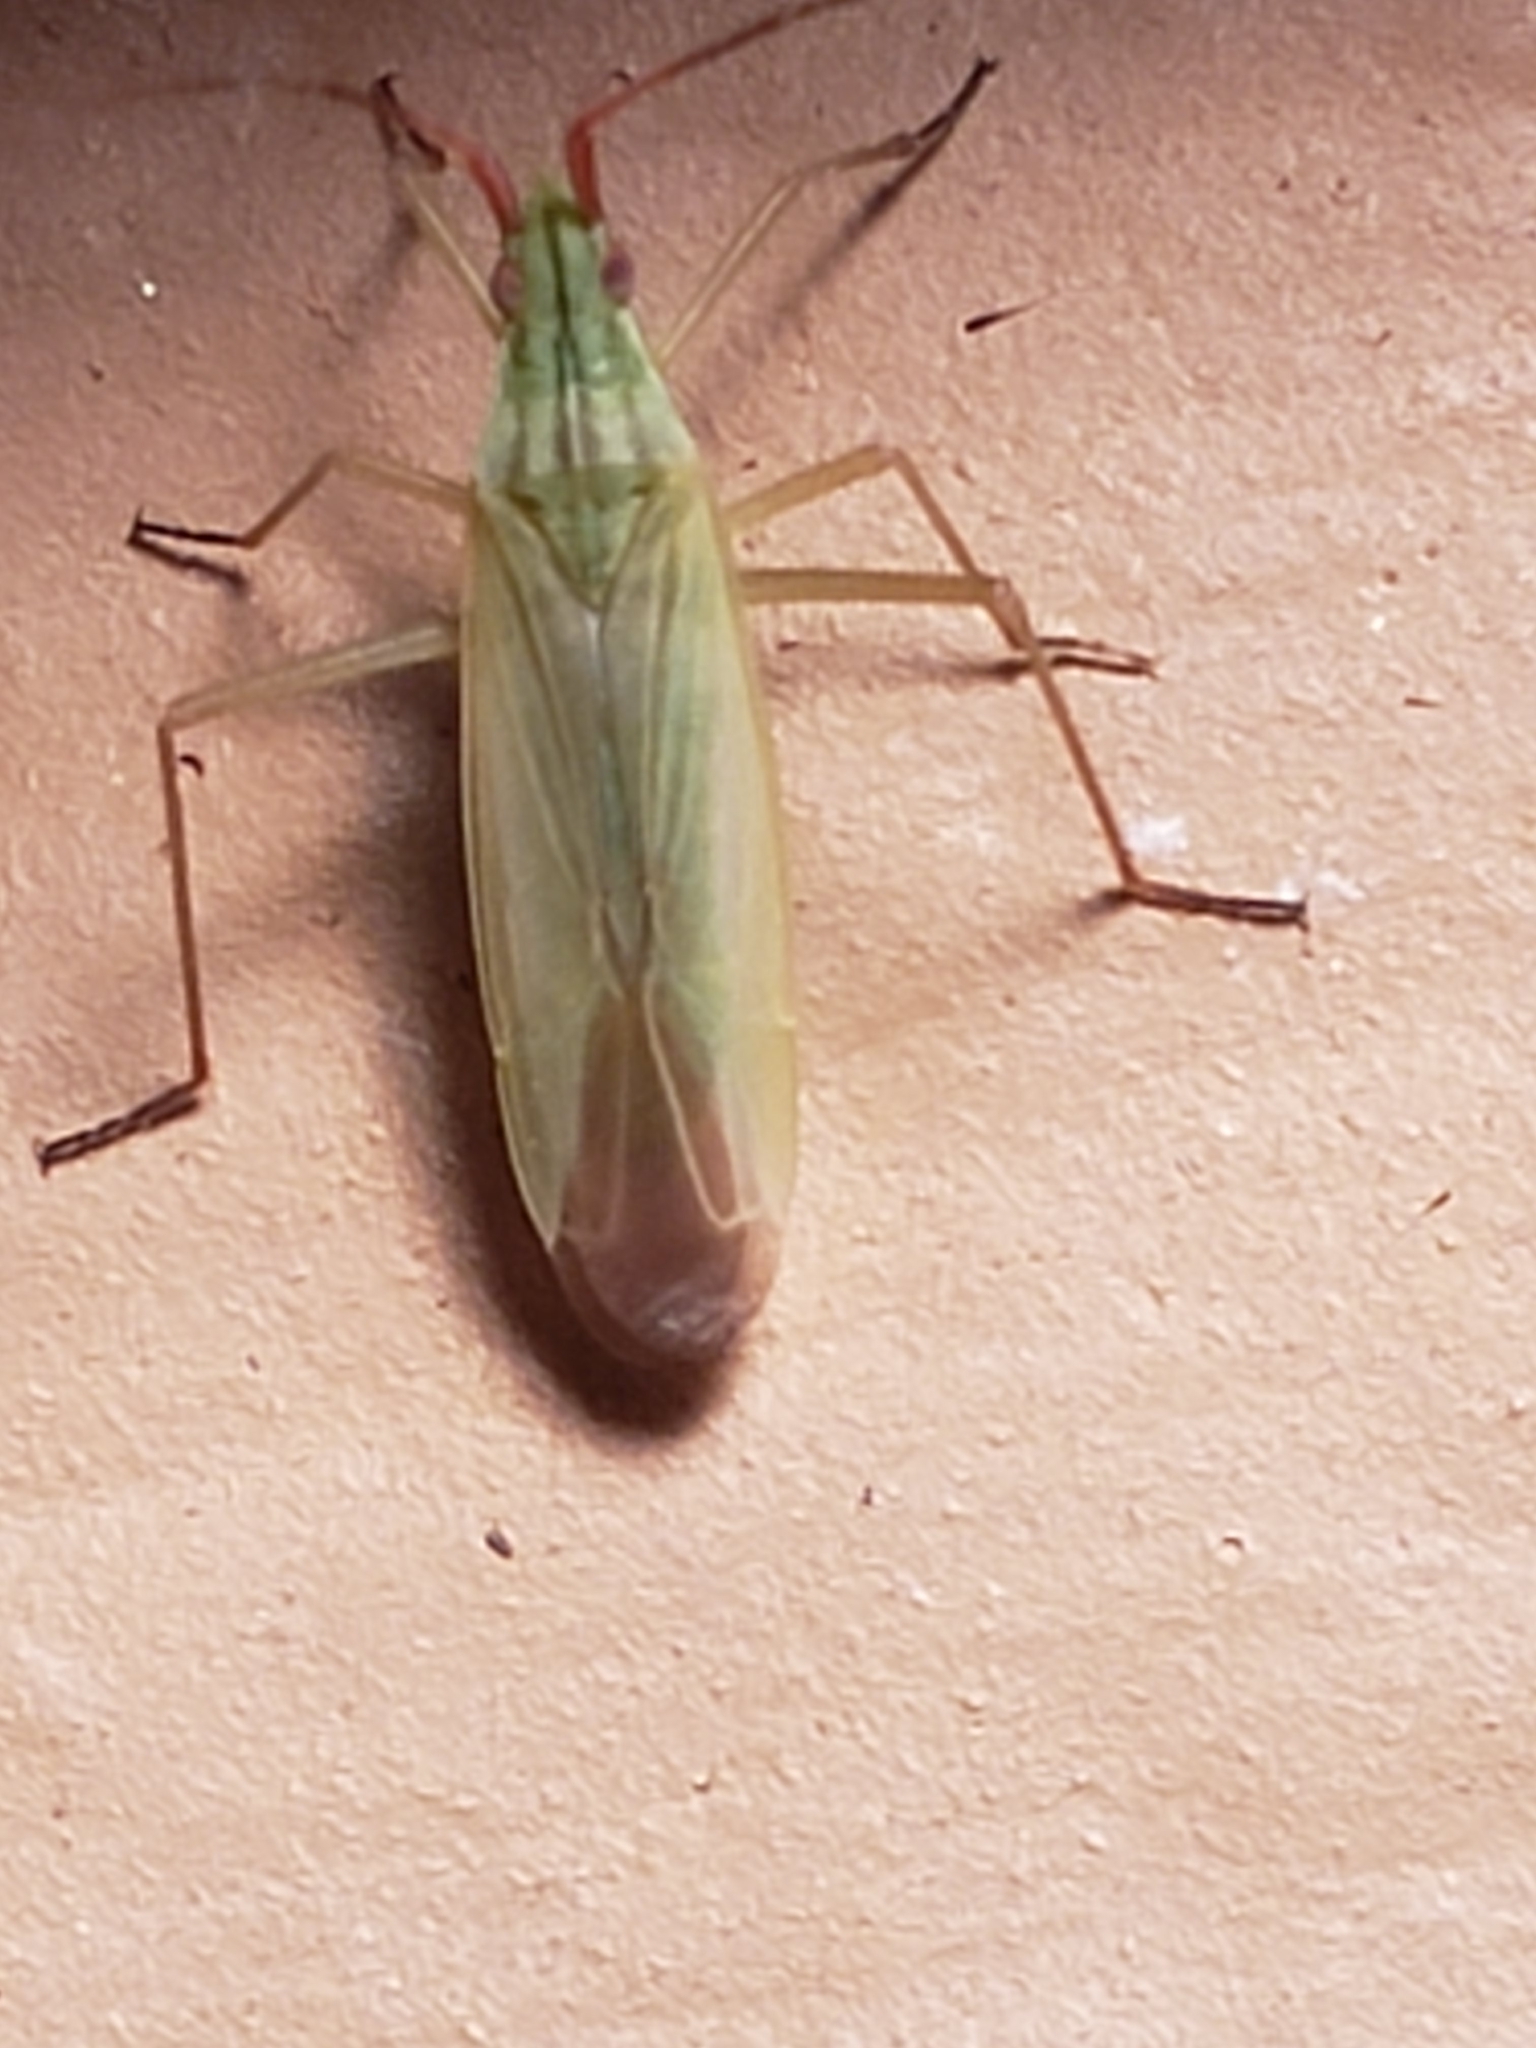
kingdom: Animalia
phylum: Arthropoda
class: Insecta
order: Hemiptera
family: Miridae
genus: Trigonotylus
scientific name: Trigonotylus caelestialium
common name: Rice leaf bug
